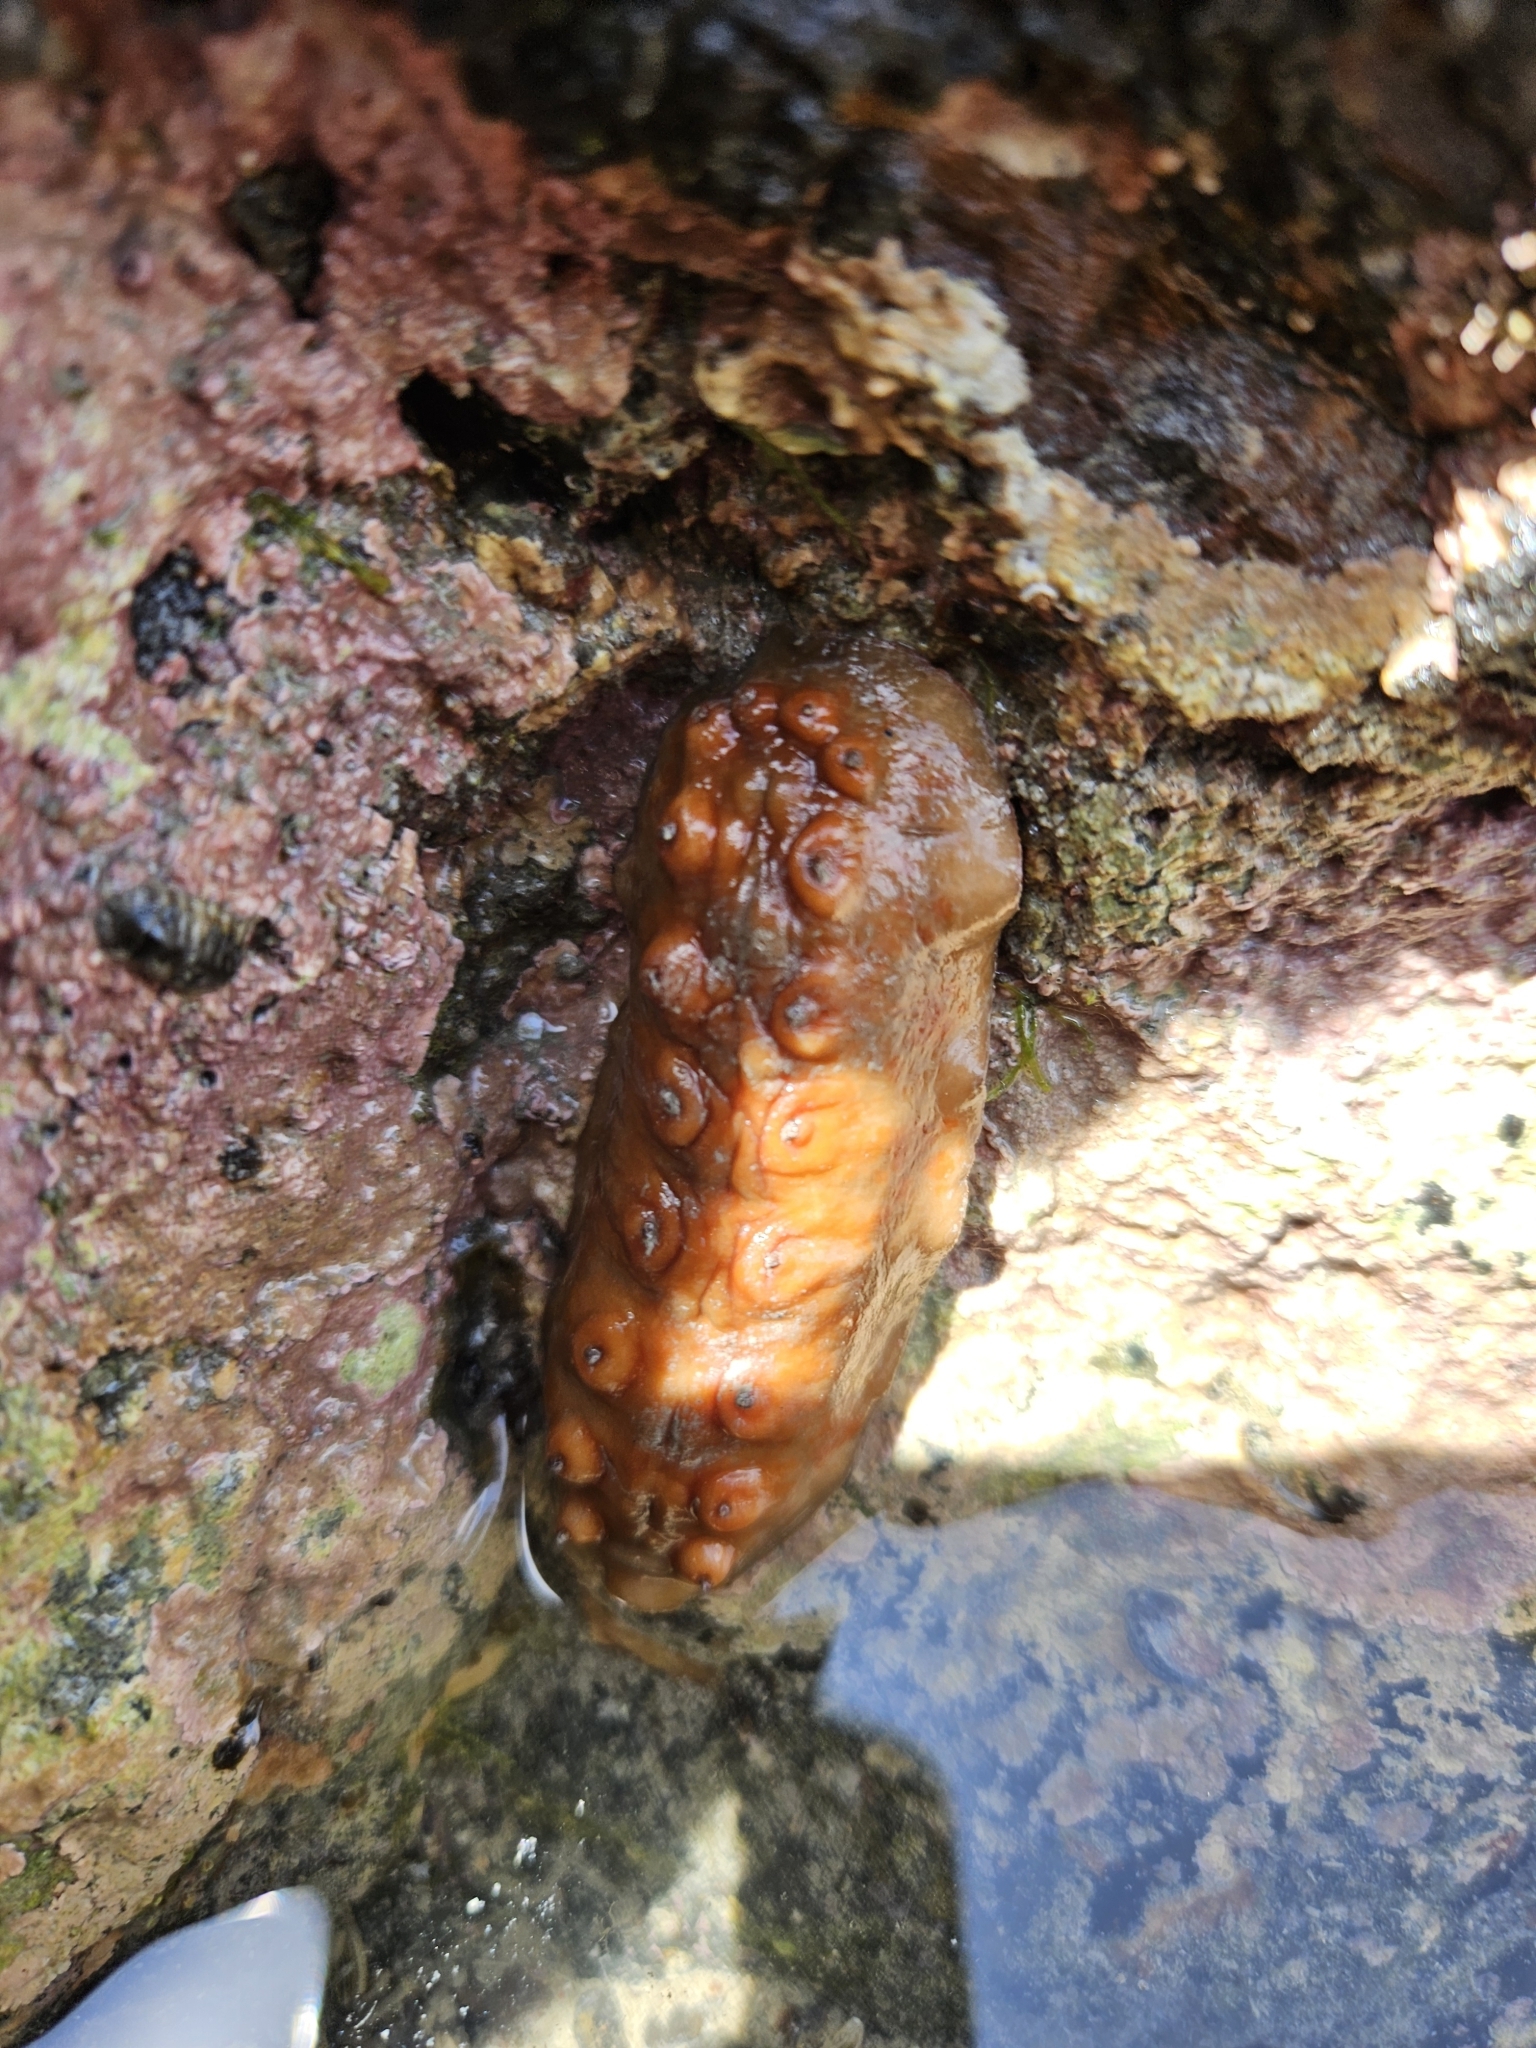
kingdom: Animalia
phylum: Mollusca
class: Polyplacophora
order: Chitonida
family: Acanthochitonidae
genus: Cryptoconchus
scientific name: Cryptoconchus porosus
